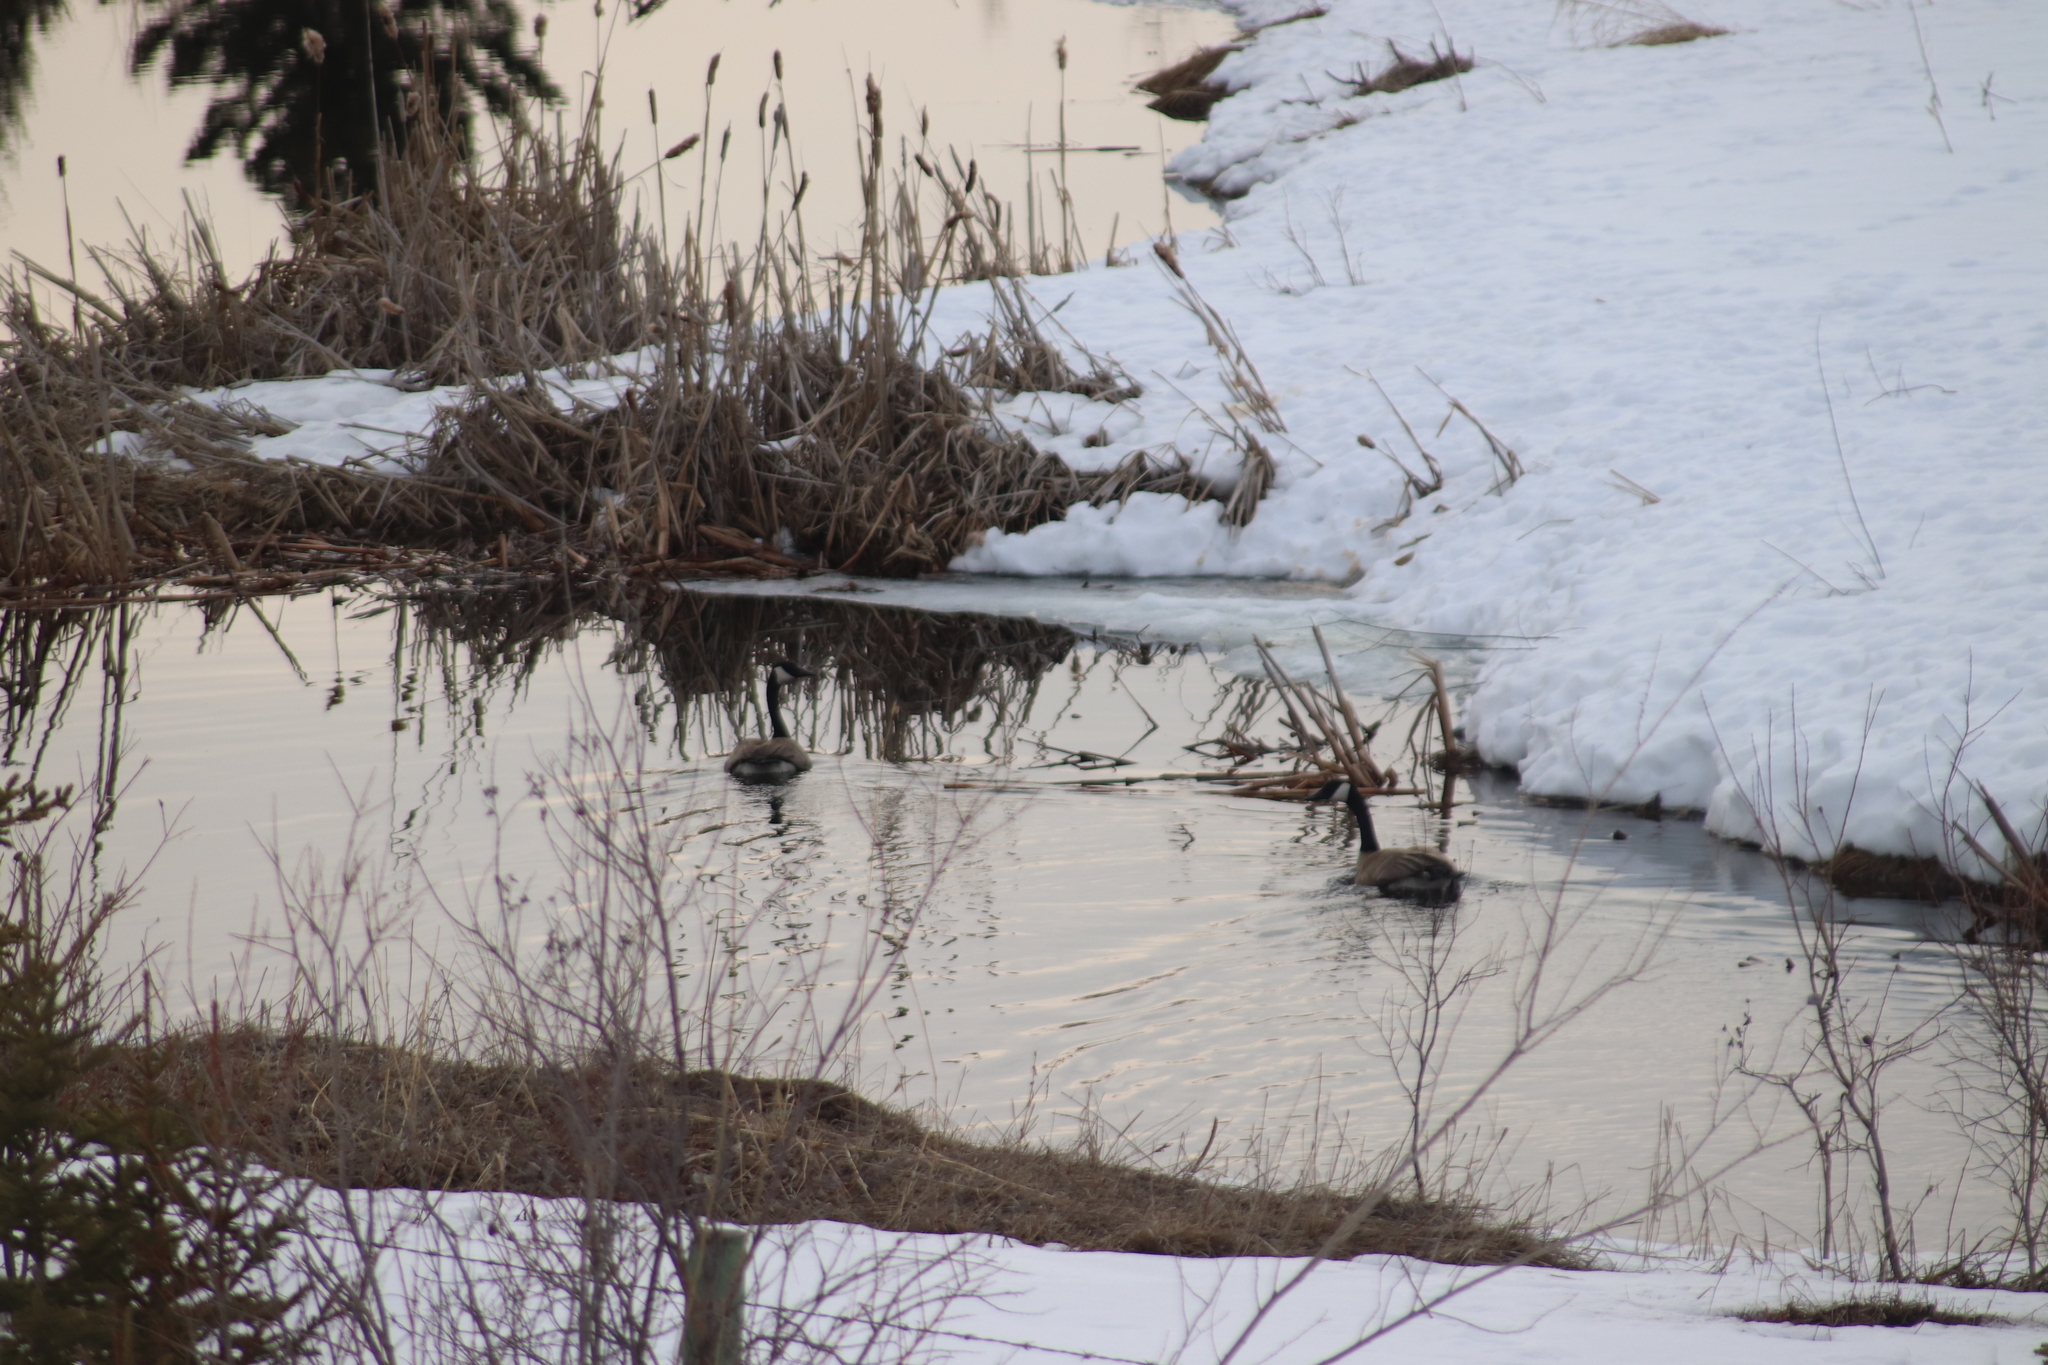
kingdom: Animalia
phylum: Chordata
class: Aves
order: Anseriformes
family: Anatidae
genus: Branta
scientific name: Branta canadensis
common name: Canada goose
